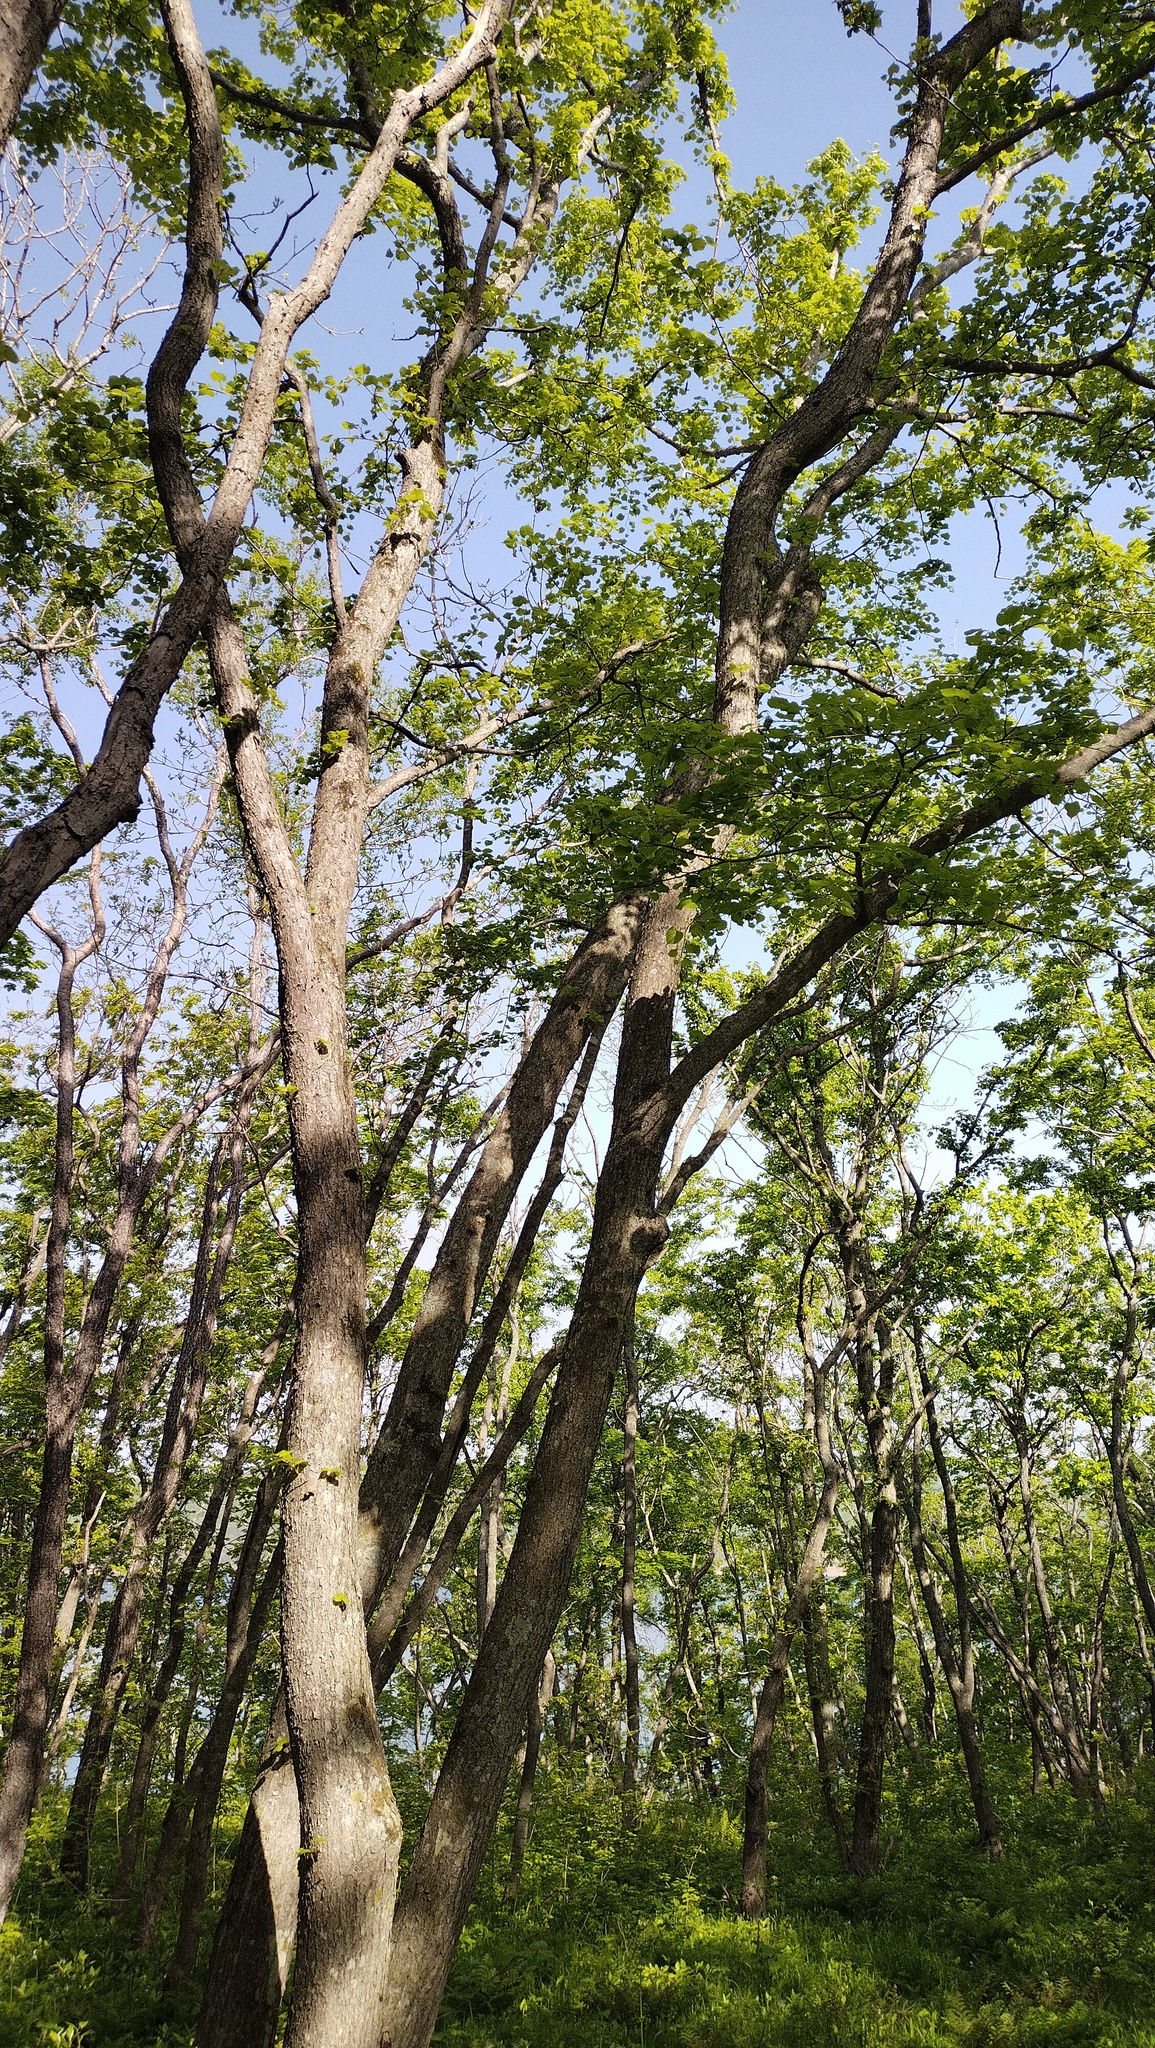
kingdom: Plantae
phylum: Tracheophyta
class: Magnoliopsida
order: Malvales
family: Malvaceae
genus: Tilia
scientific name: Tilia amurensis
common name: Amur lime
